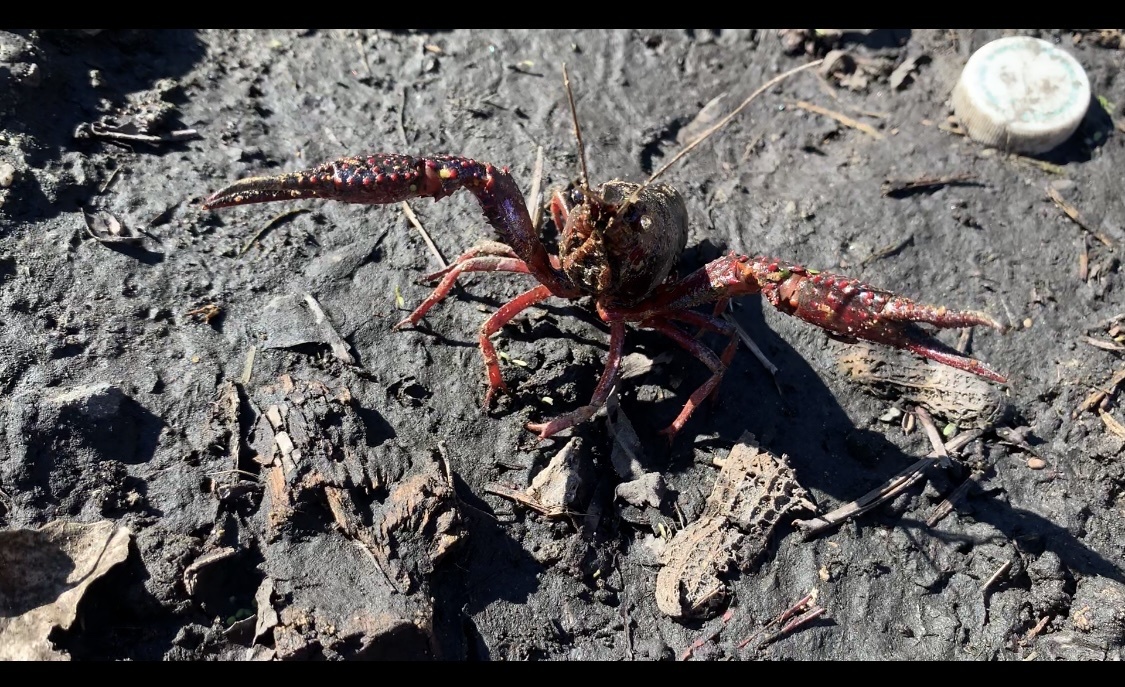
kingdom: Animalia
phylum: Arthropoda
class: Malacostraca
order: Decapoda
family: Cambaridae
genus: Procambarus
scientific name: Procambarus clarkii
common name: Red swamp crayfish
